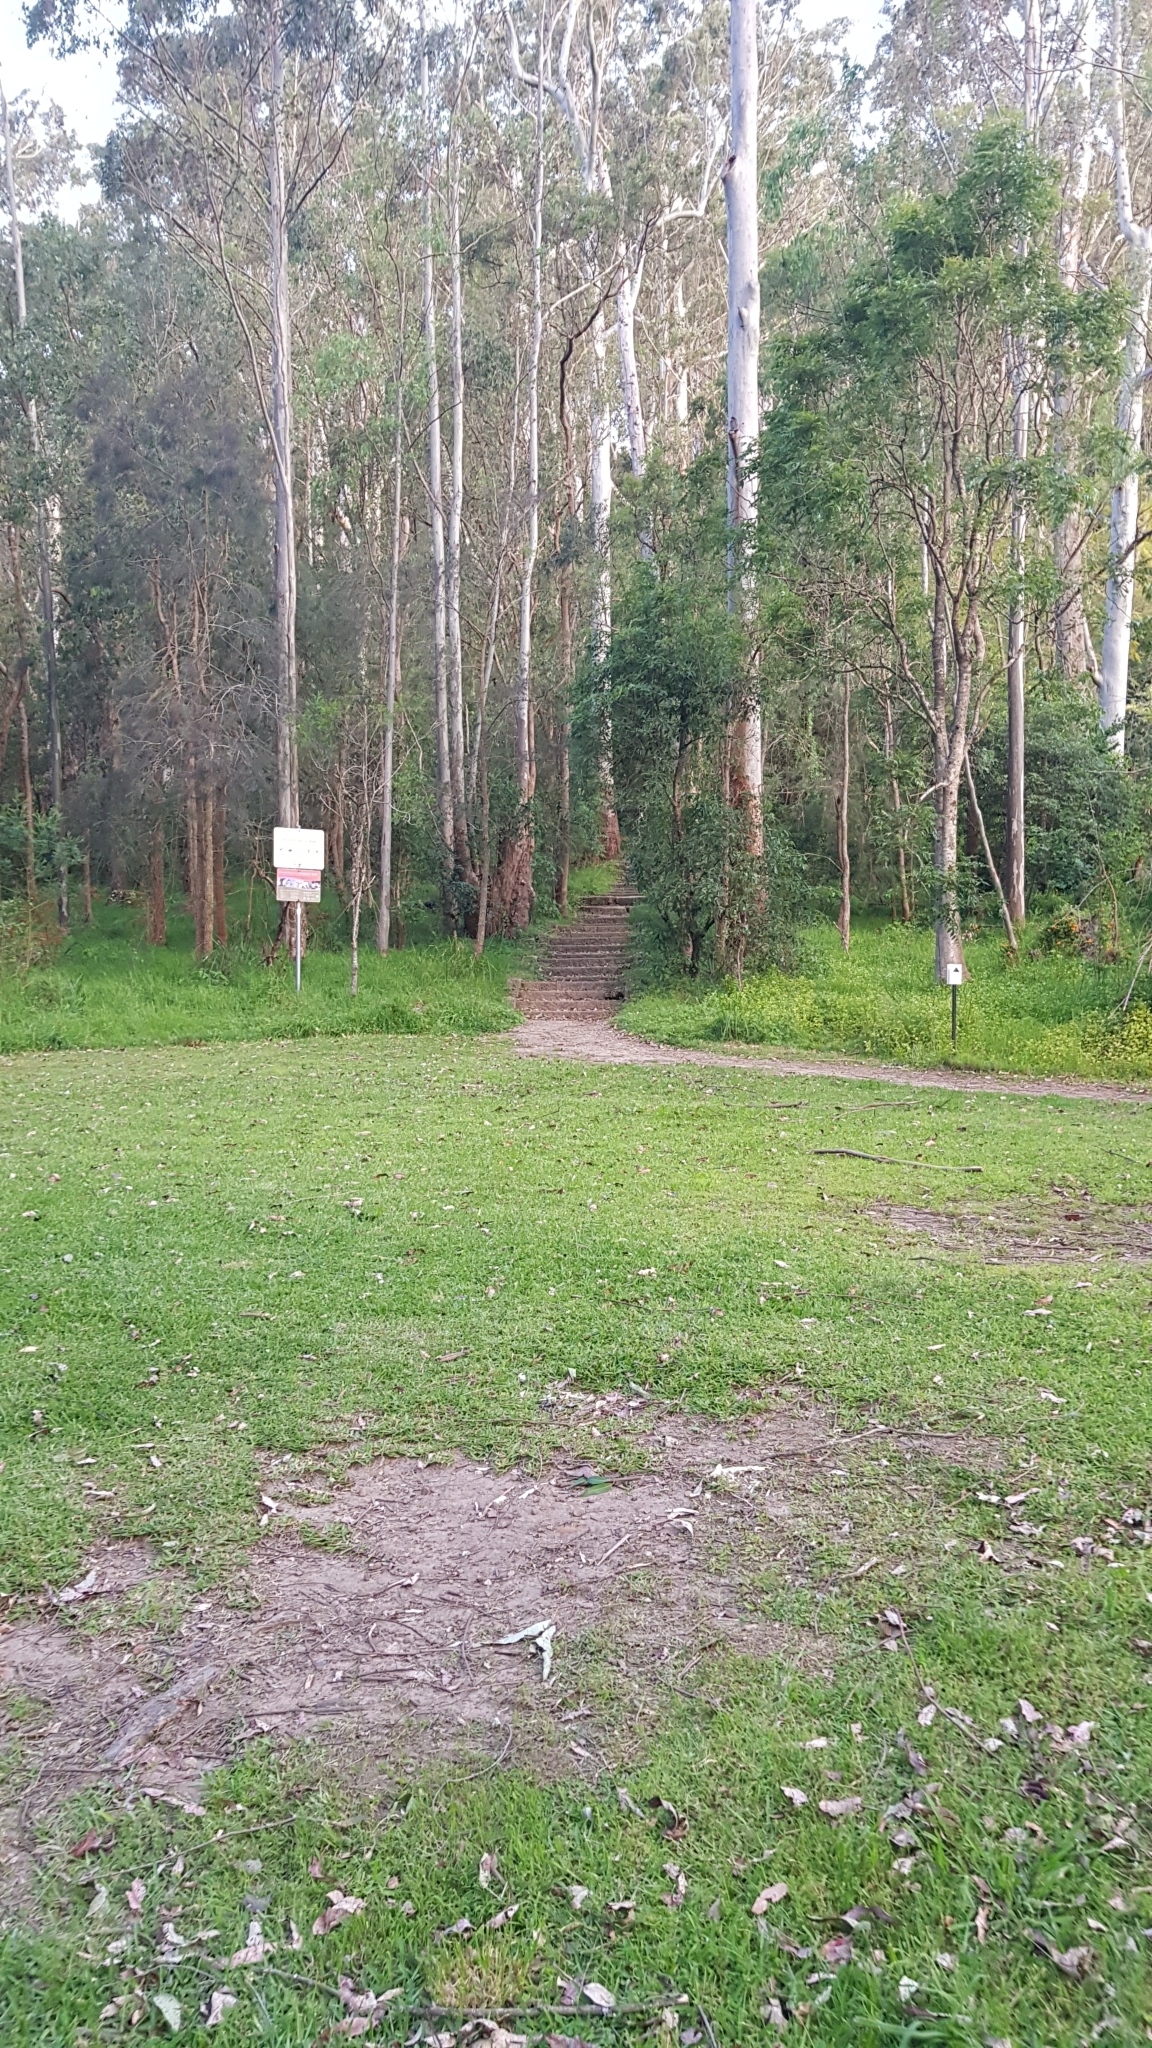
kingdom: Animalia
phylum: Chordata
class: Mammalia
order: Monotremata
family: Tachyglossidae
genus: Tachyglossus
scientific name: Tachyglossus aculeatus
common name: Short-beaked echidna
